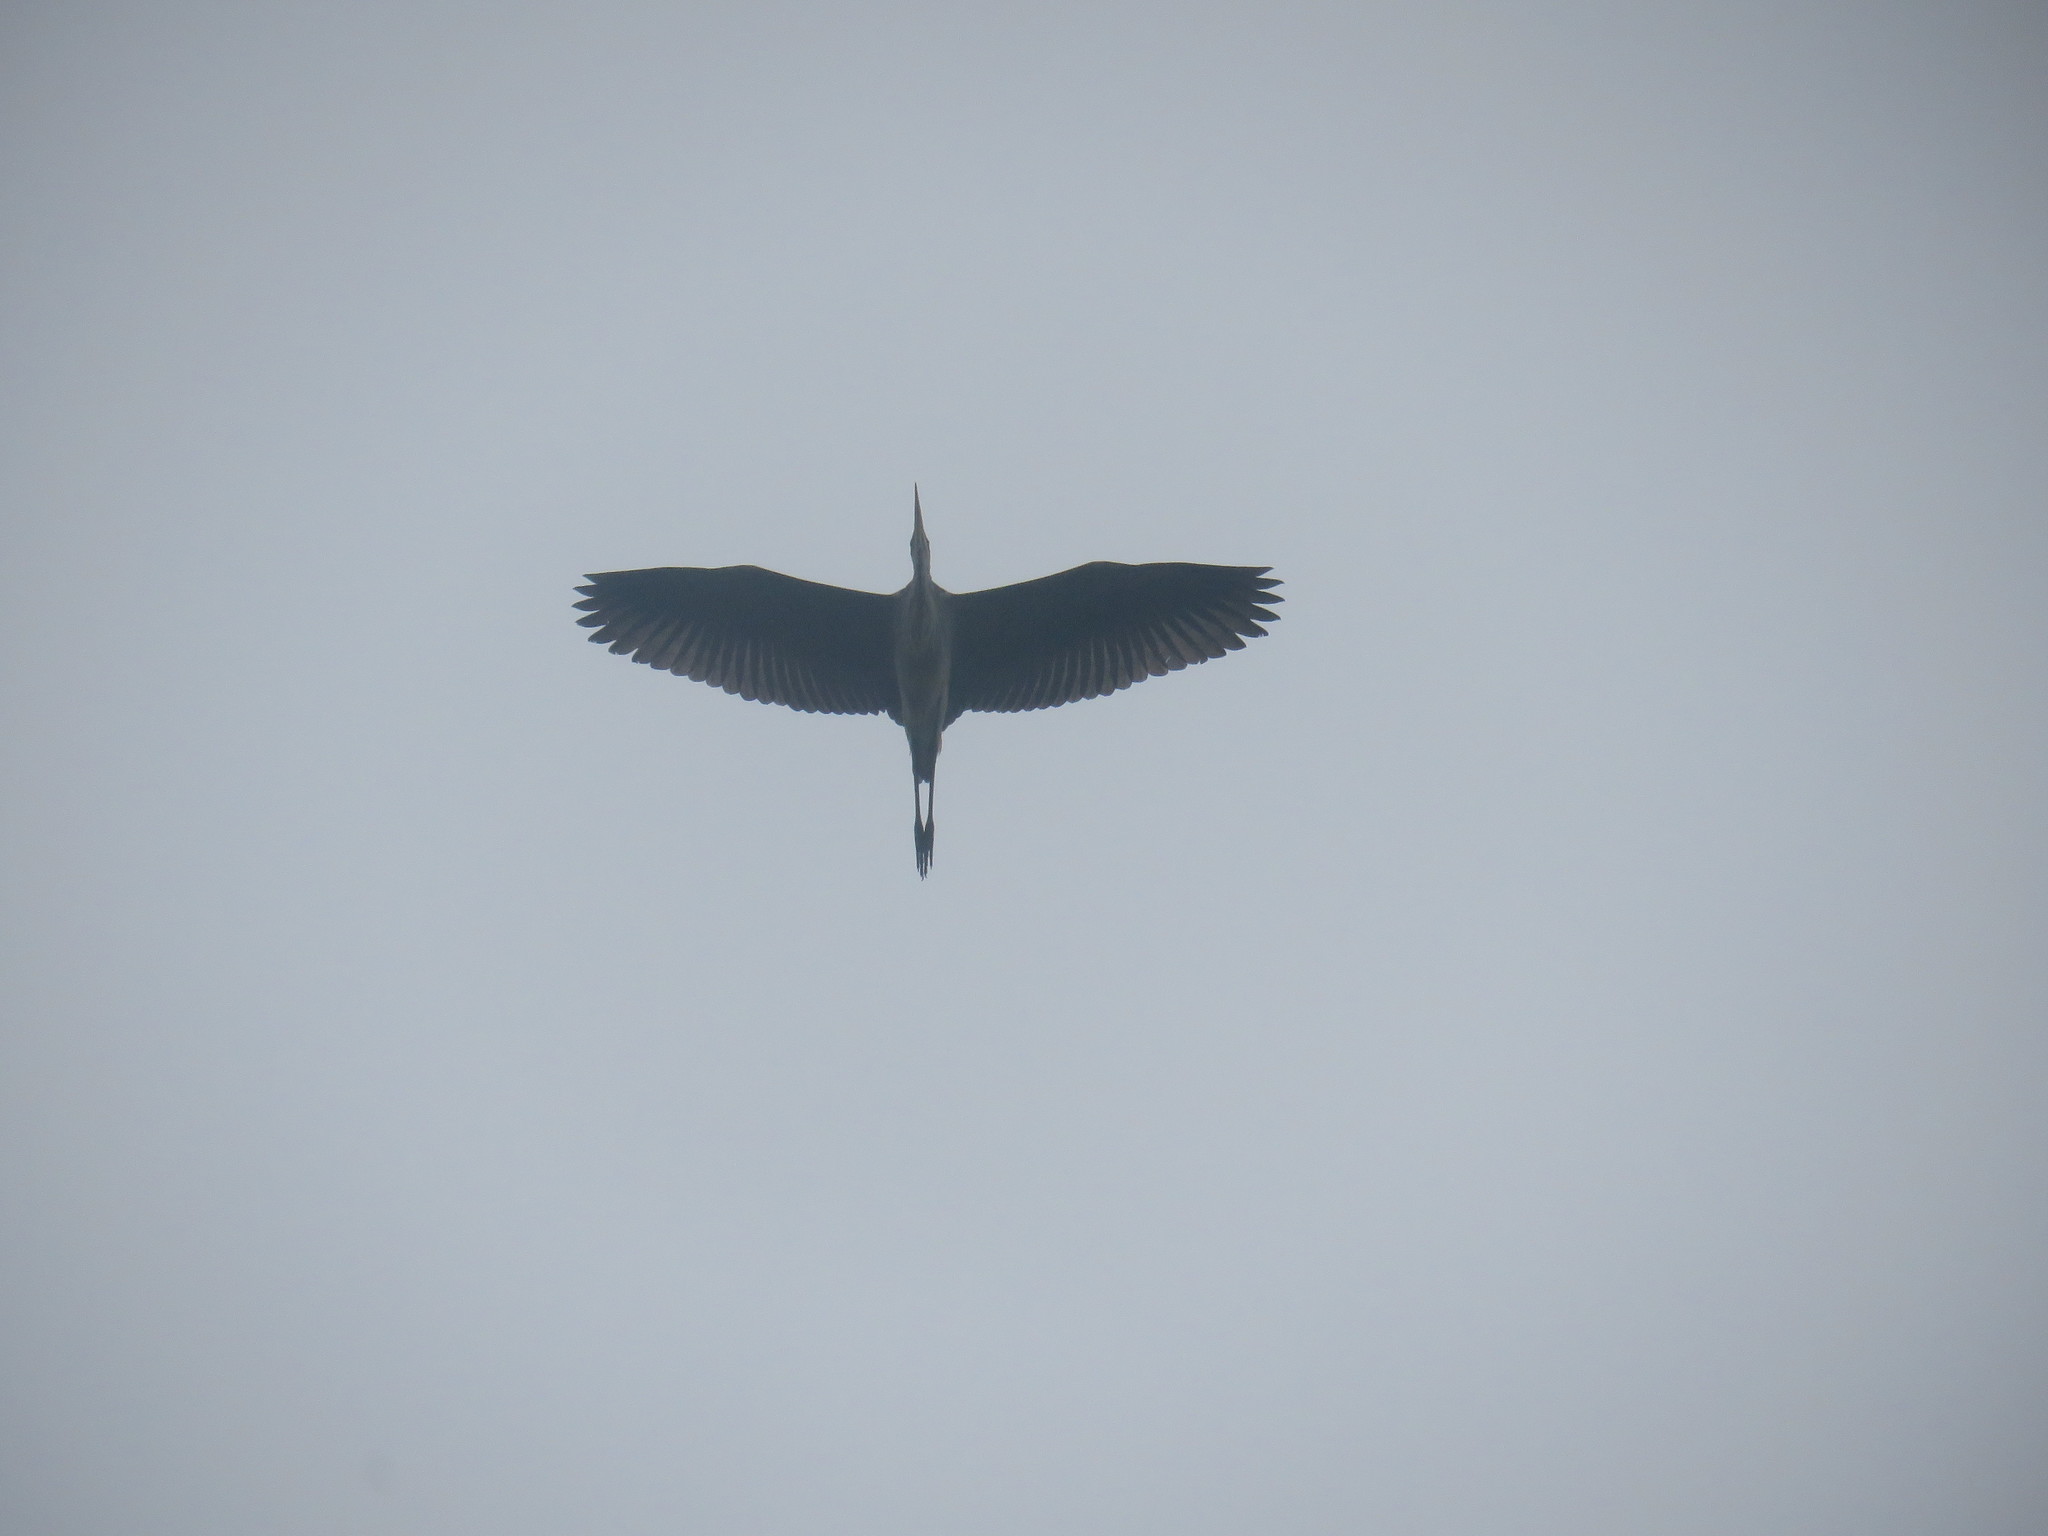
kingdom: Animalia
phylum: Chordata
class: Aves
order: Pelecaniformes
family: Ardeidae
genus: Ardea
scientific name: Ardea cocoi
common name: Cocoi heron
